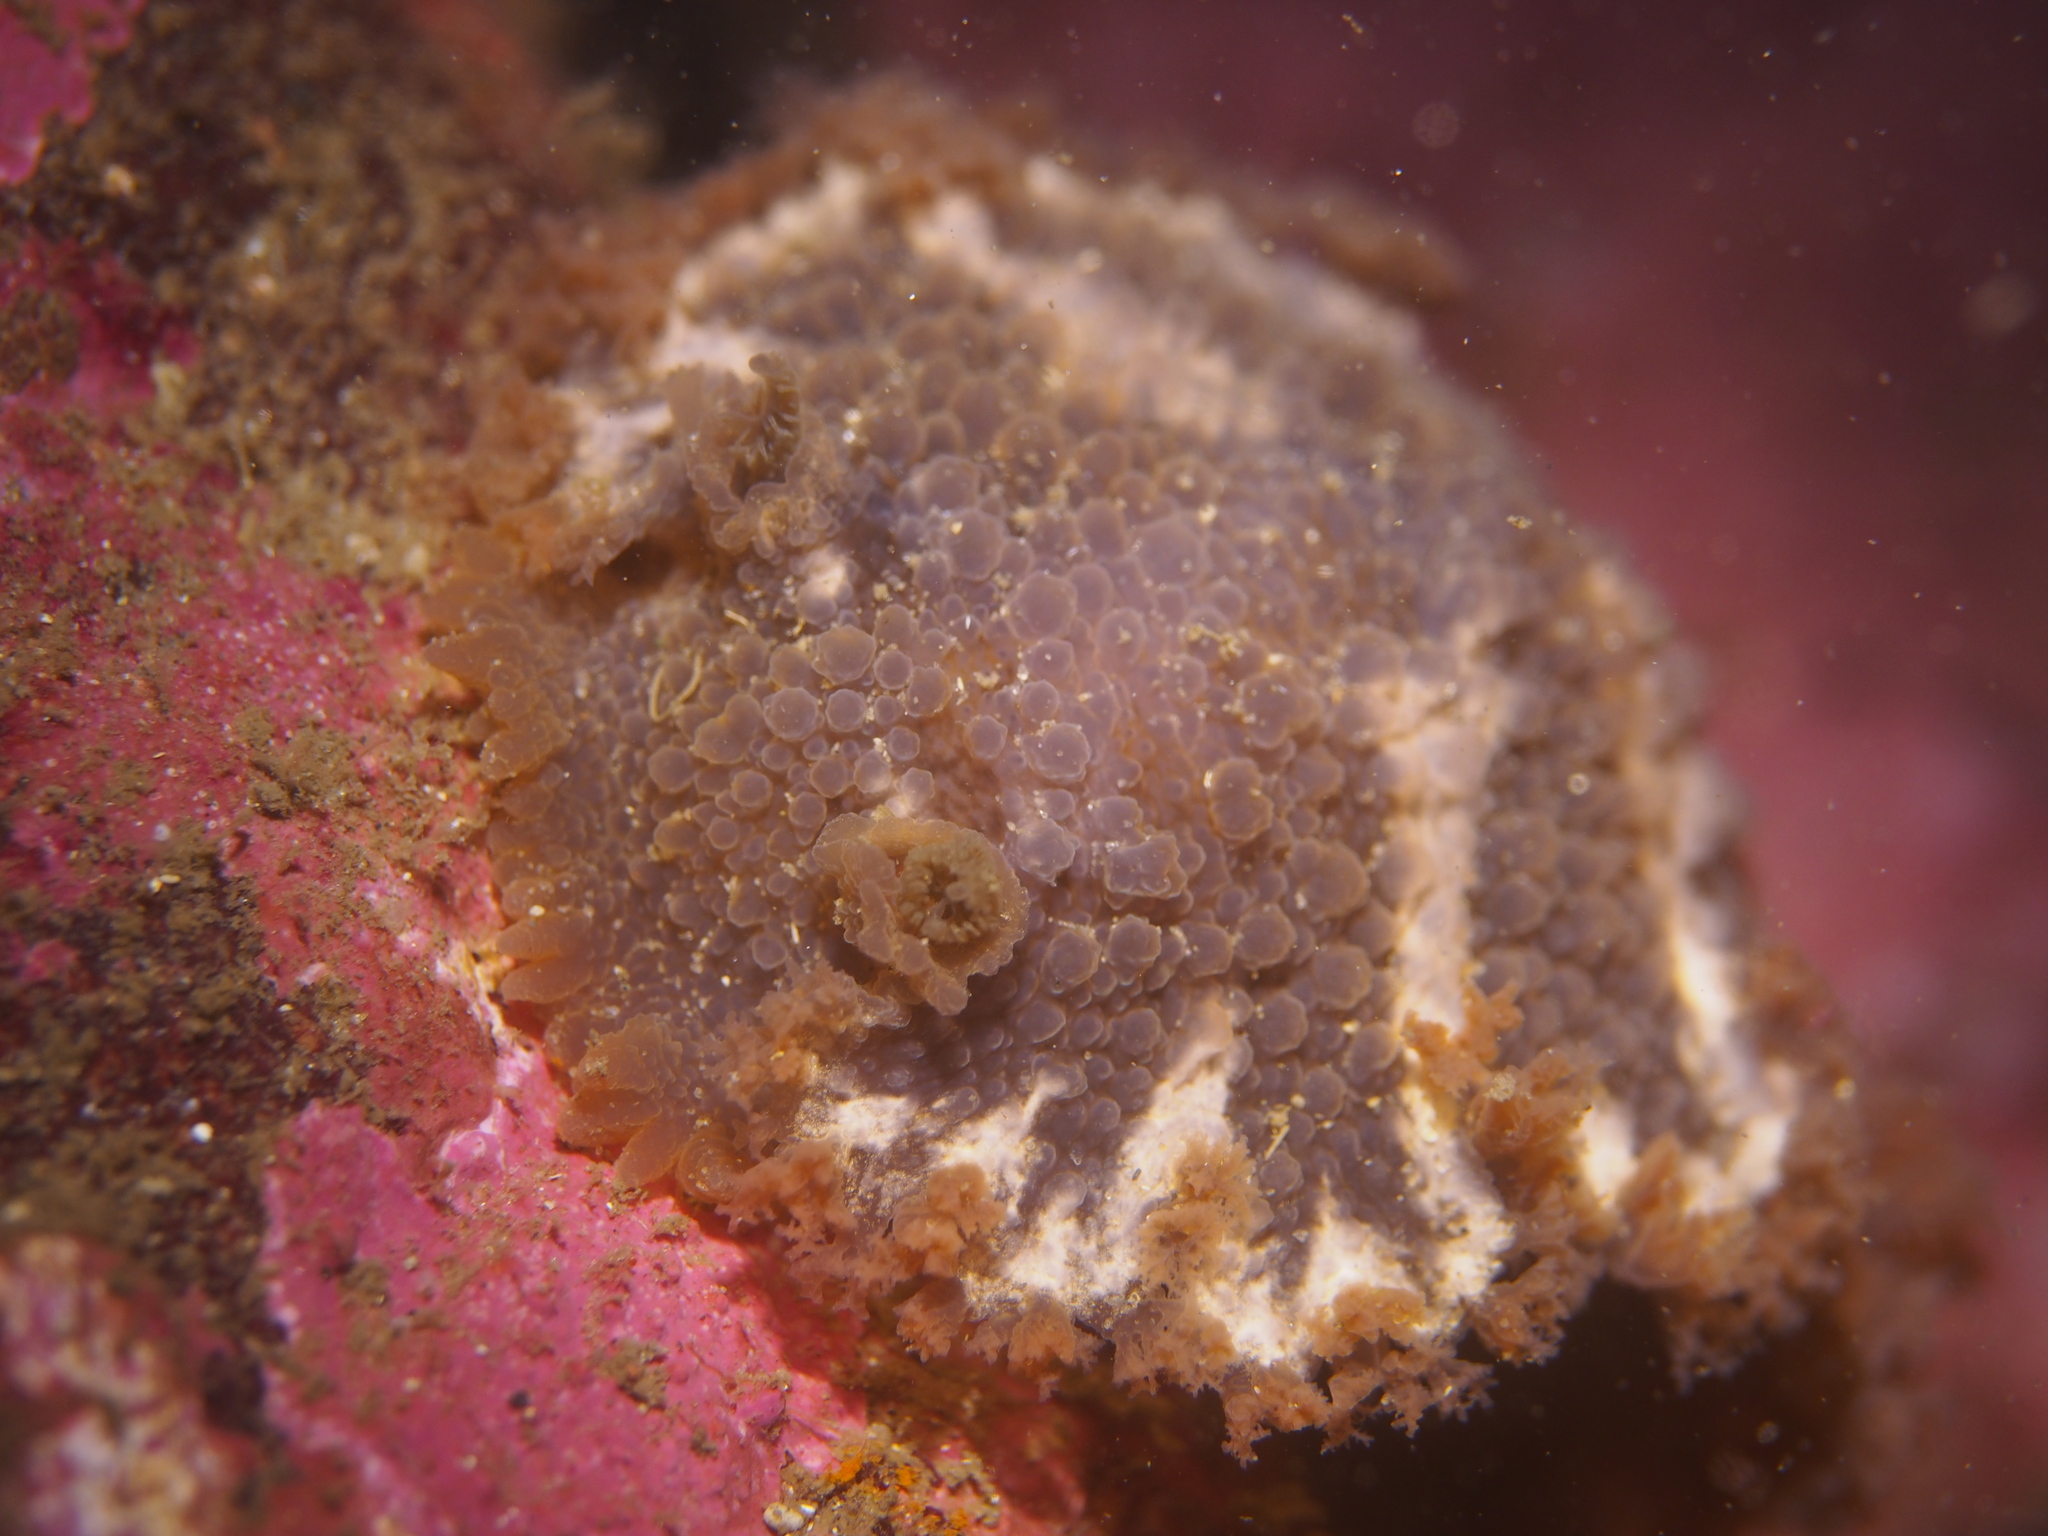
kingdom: Animalia
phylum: Mollusca
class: Gastropoda
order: Nudibranchia
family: Tritoniidae
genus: Tritonia
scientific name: Tritonia hombergii
